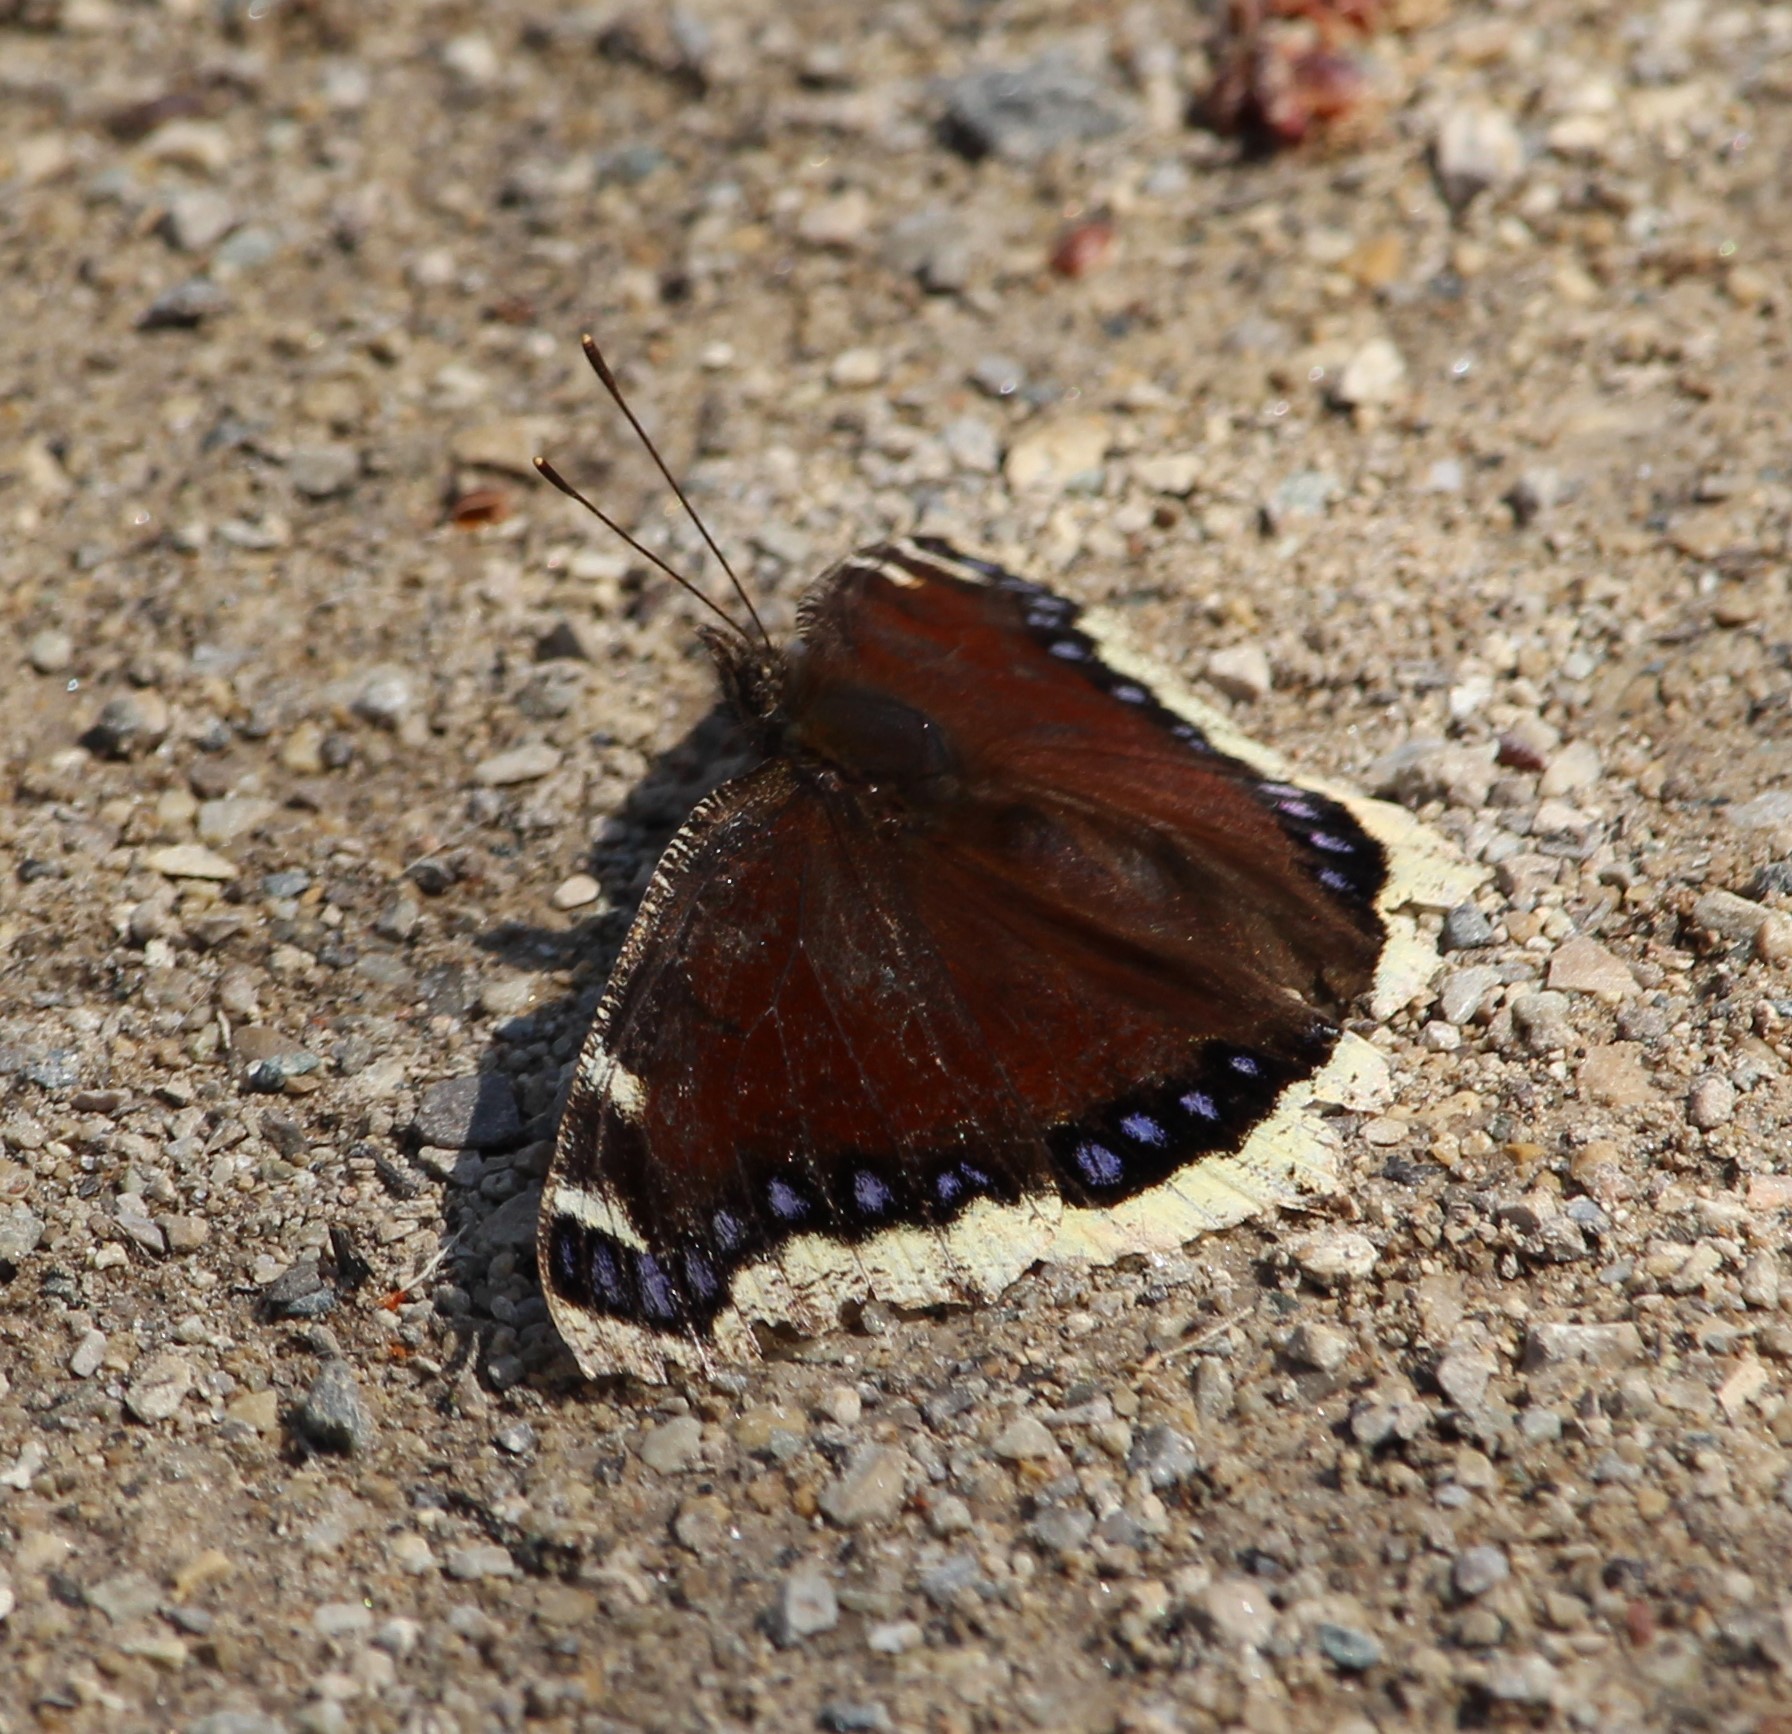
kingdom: Animalia
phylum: Arthropoda
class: Insecta
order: Lepidoptera
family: Nymphalidae
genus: Nymphalis
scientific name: Nymphalis antiopa
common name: Camberwell beauty
